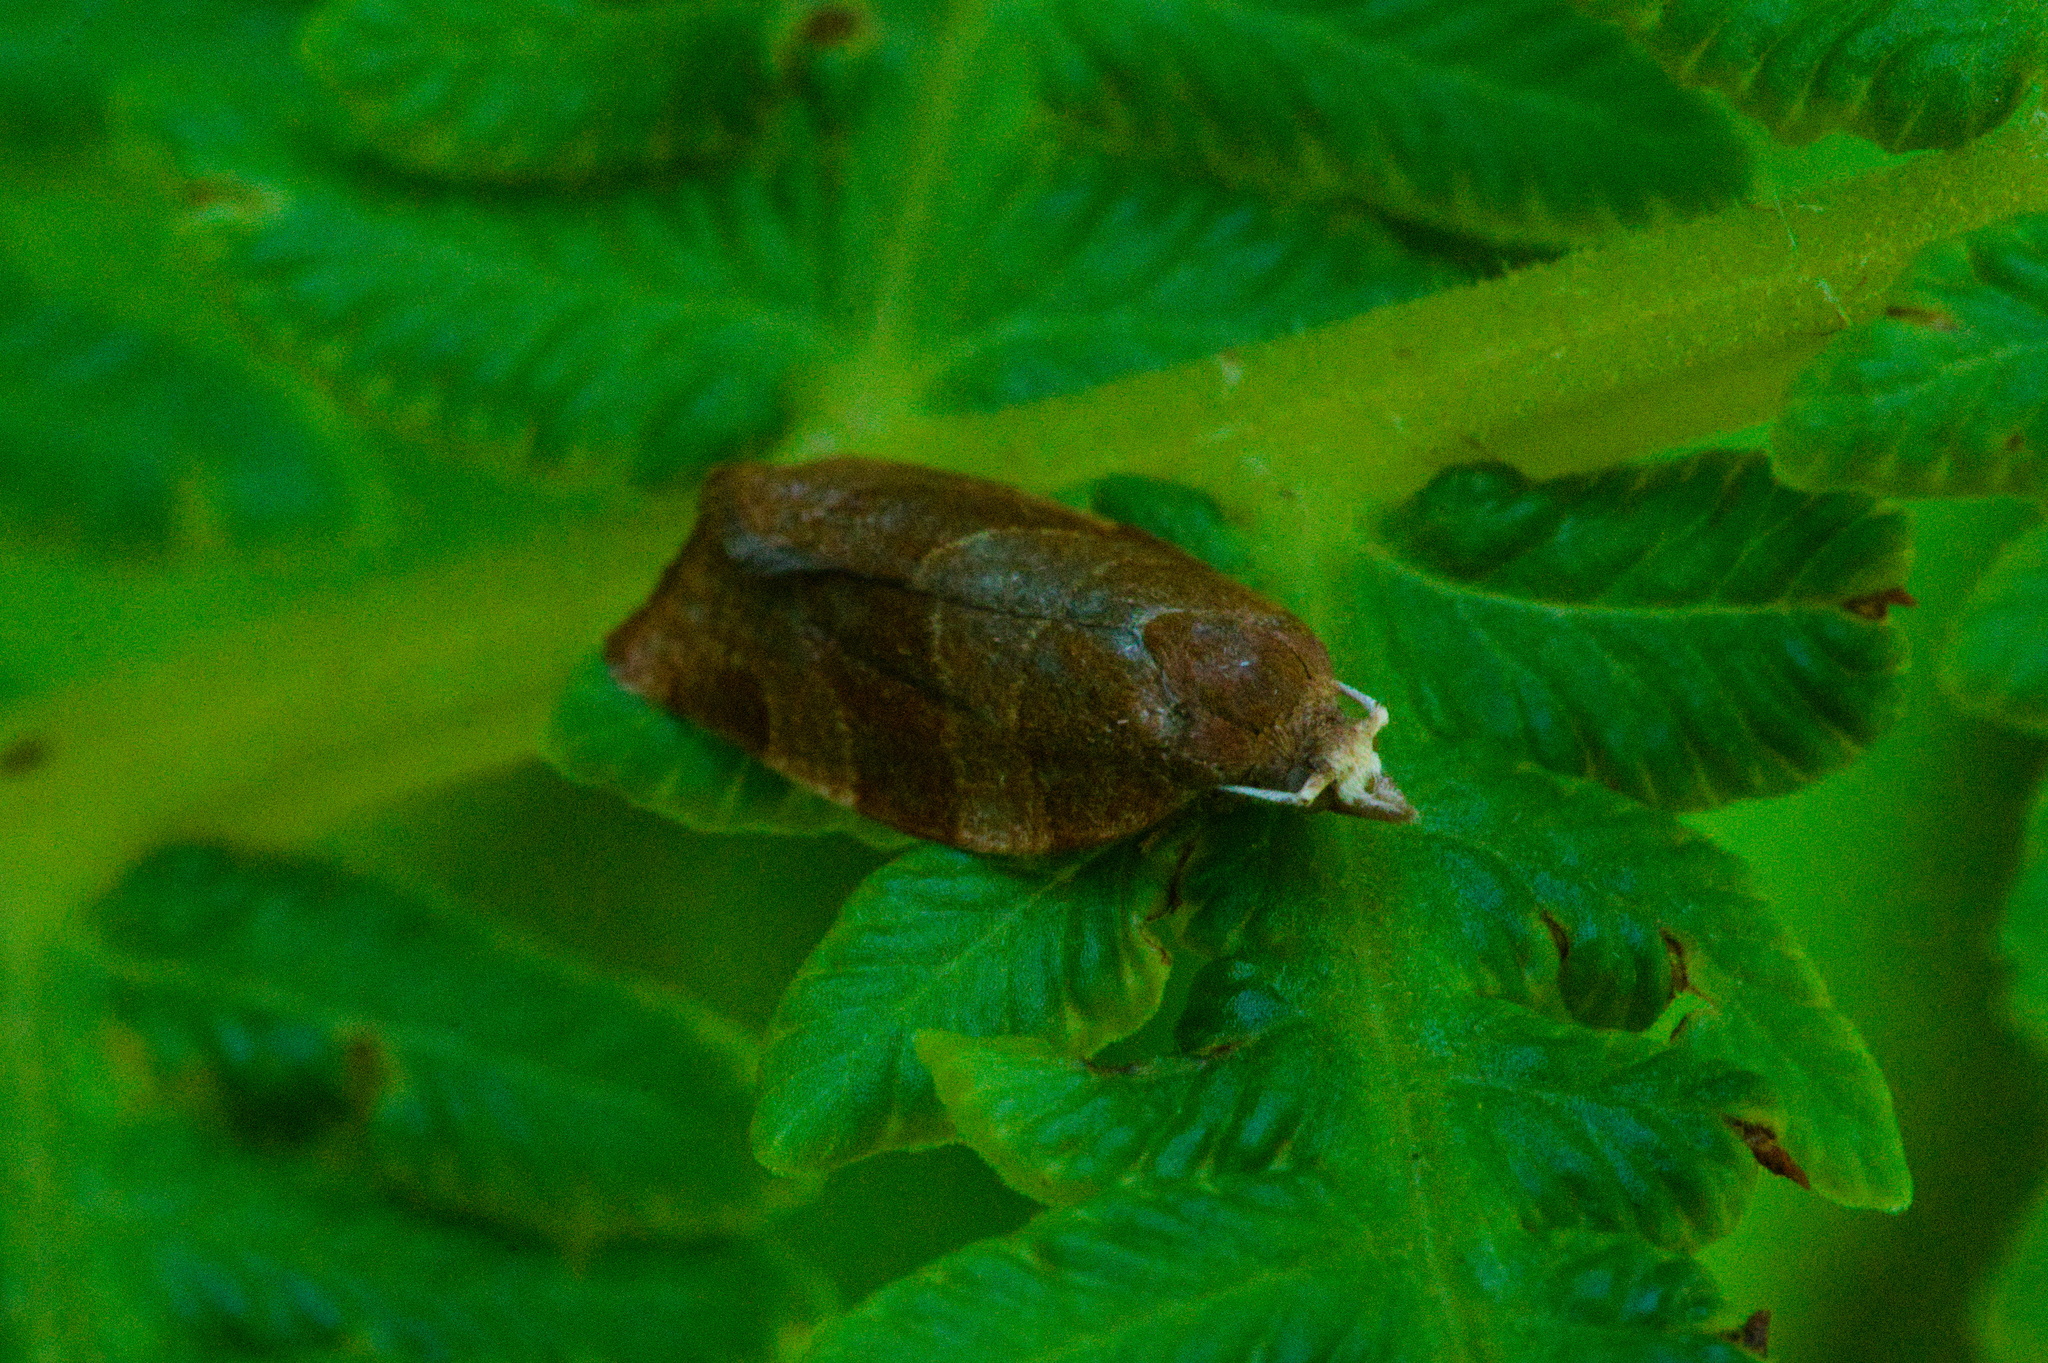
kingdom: Animalia
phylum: Arthropoda
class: Insecta
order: Lepidoptera
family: Tortricidae
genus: Pandemis
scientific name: Pandemis cinnamomeana
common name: White-faced twist
